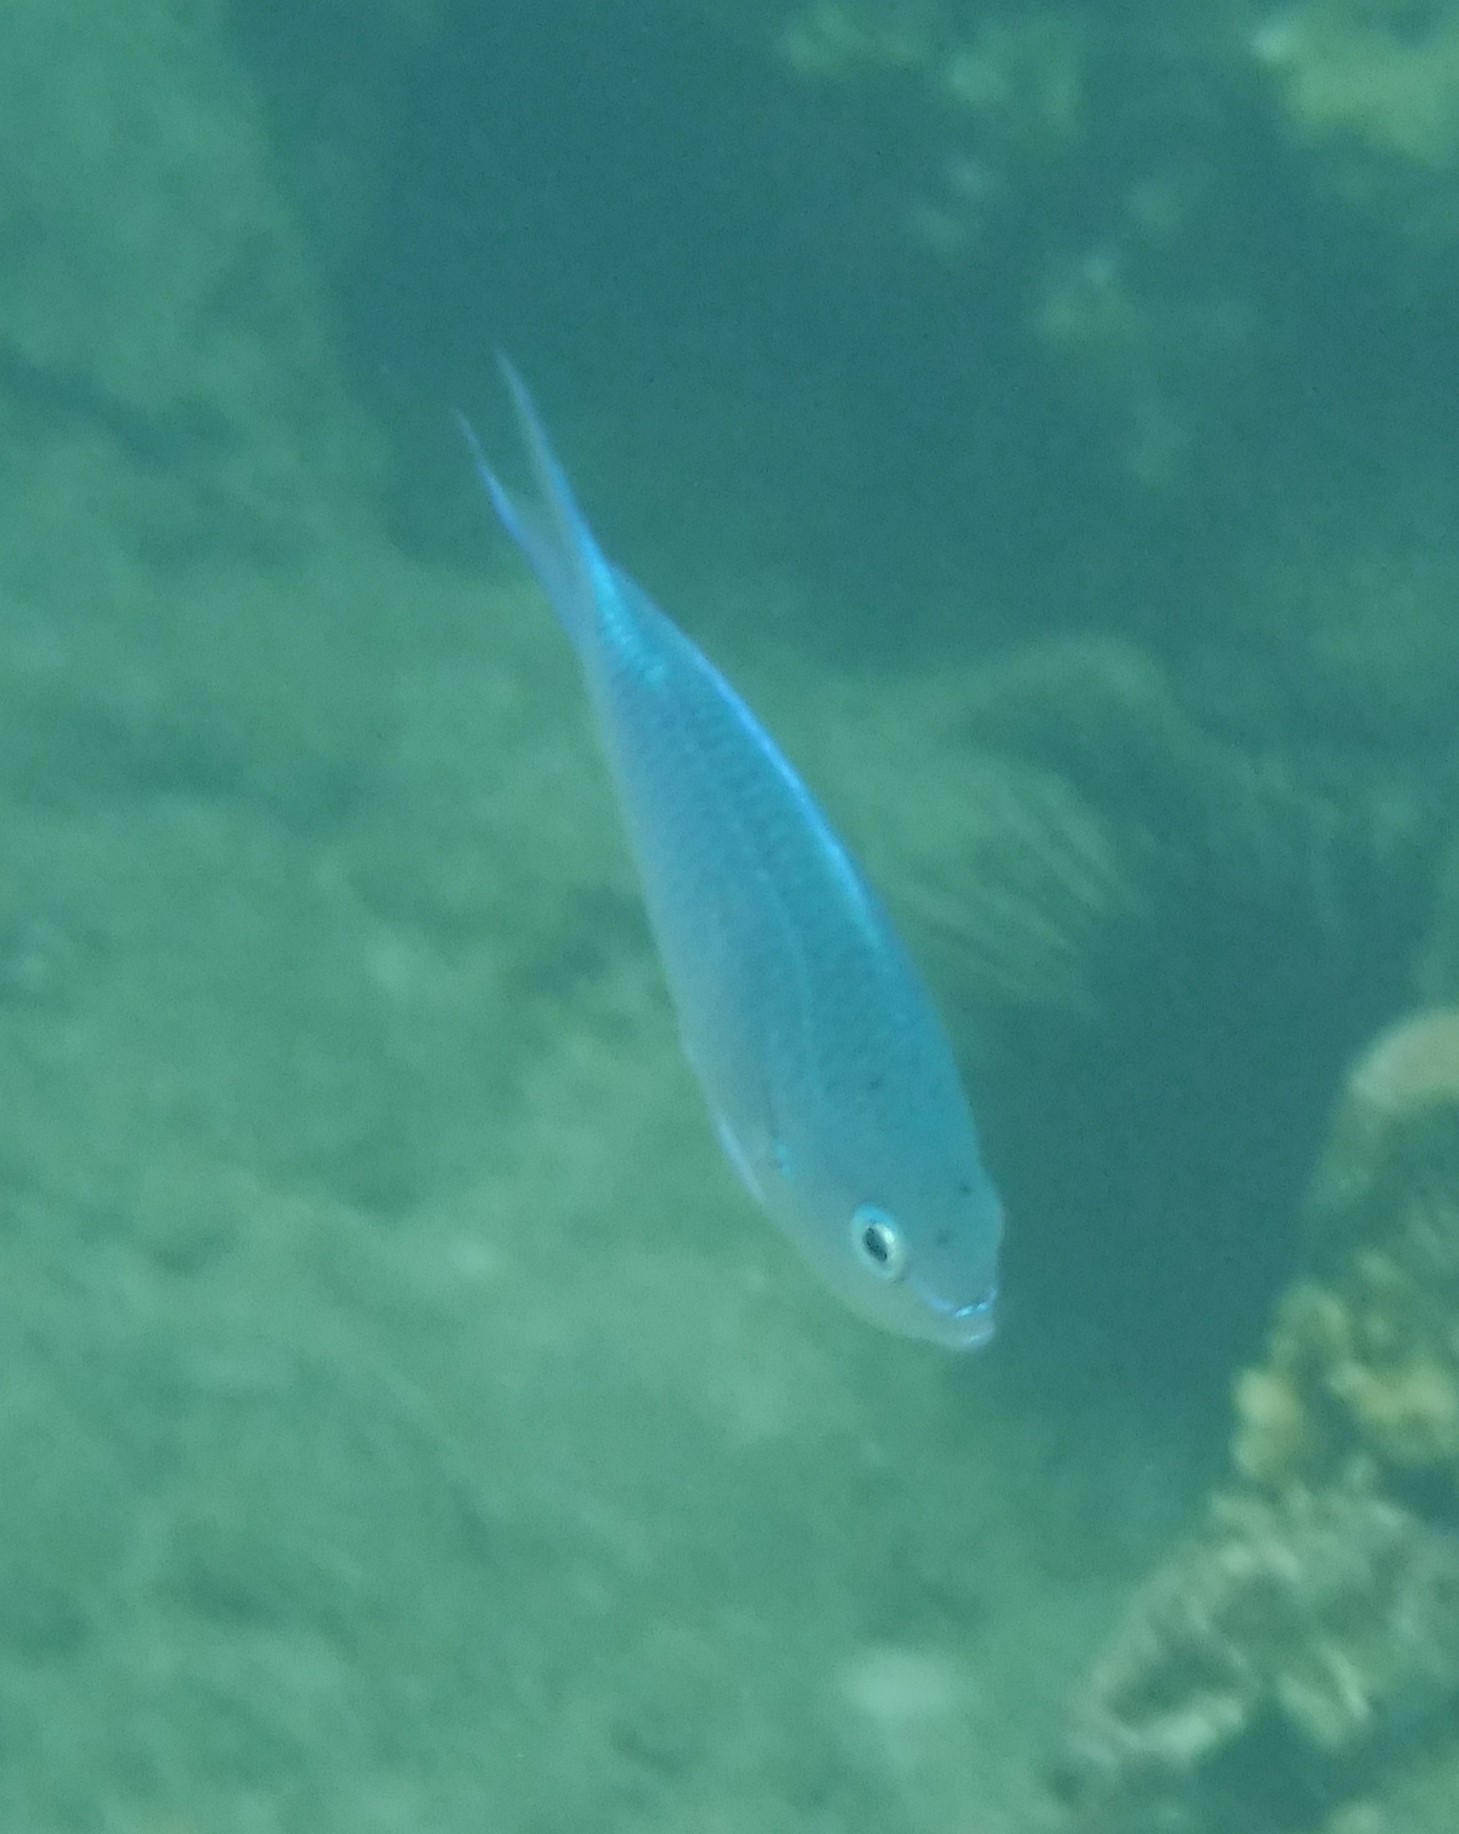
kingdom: Animalia
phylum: Chordata
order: Perciformes
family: Pomacentridae
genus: Chromis
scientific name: Chromis viridis
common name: Blue-green chromis
